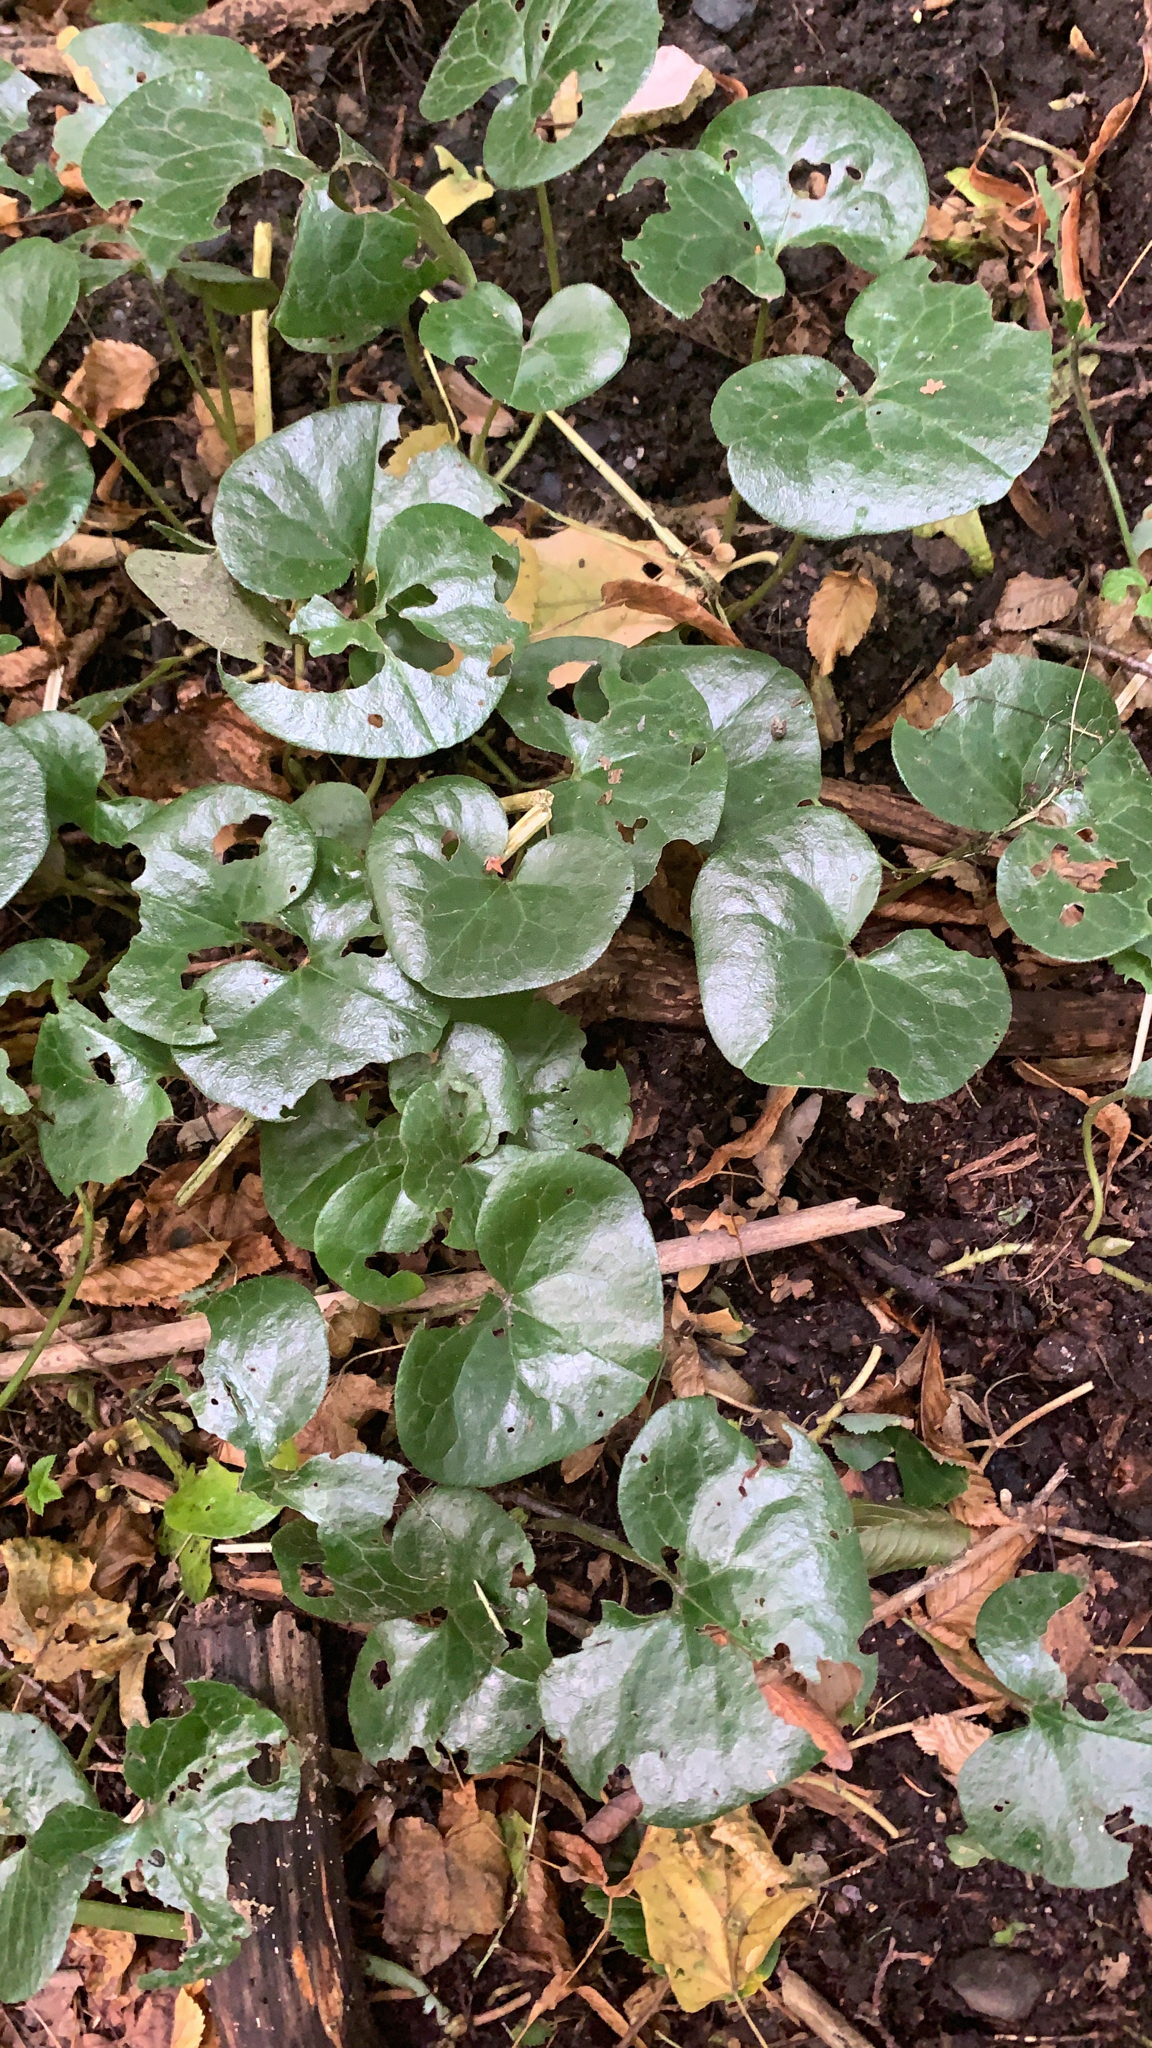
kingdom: Plantae
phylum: Tracheophyta
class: Magnoliopsida
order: Piperales
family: Aristolochiaceae
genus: Asarum
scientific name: Asarum europaeum
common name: Asarabacca
